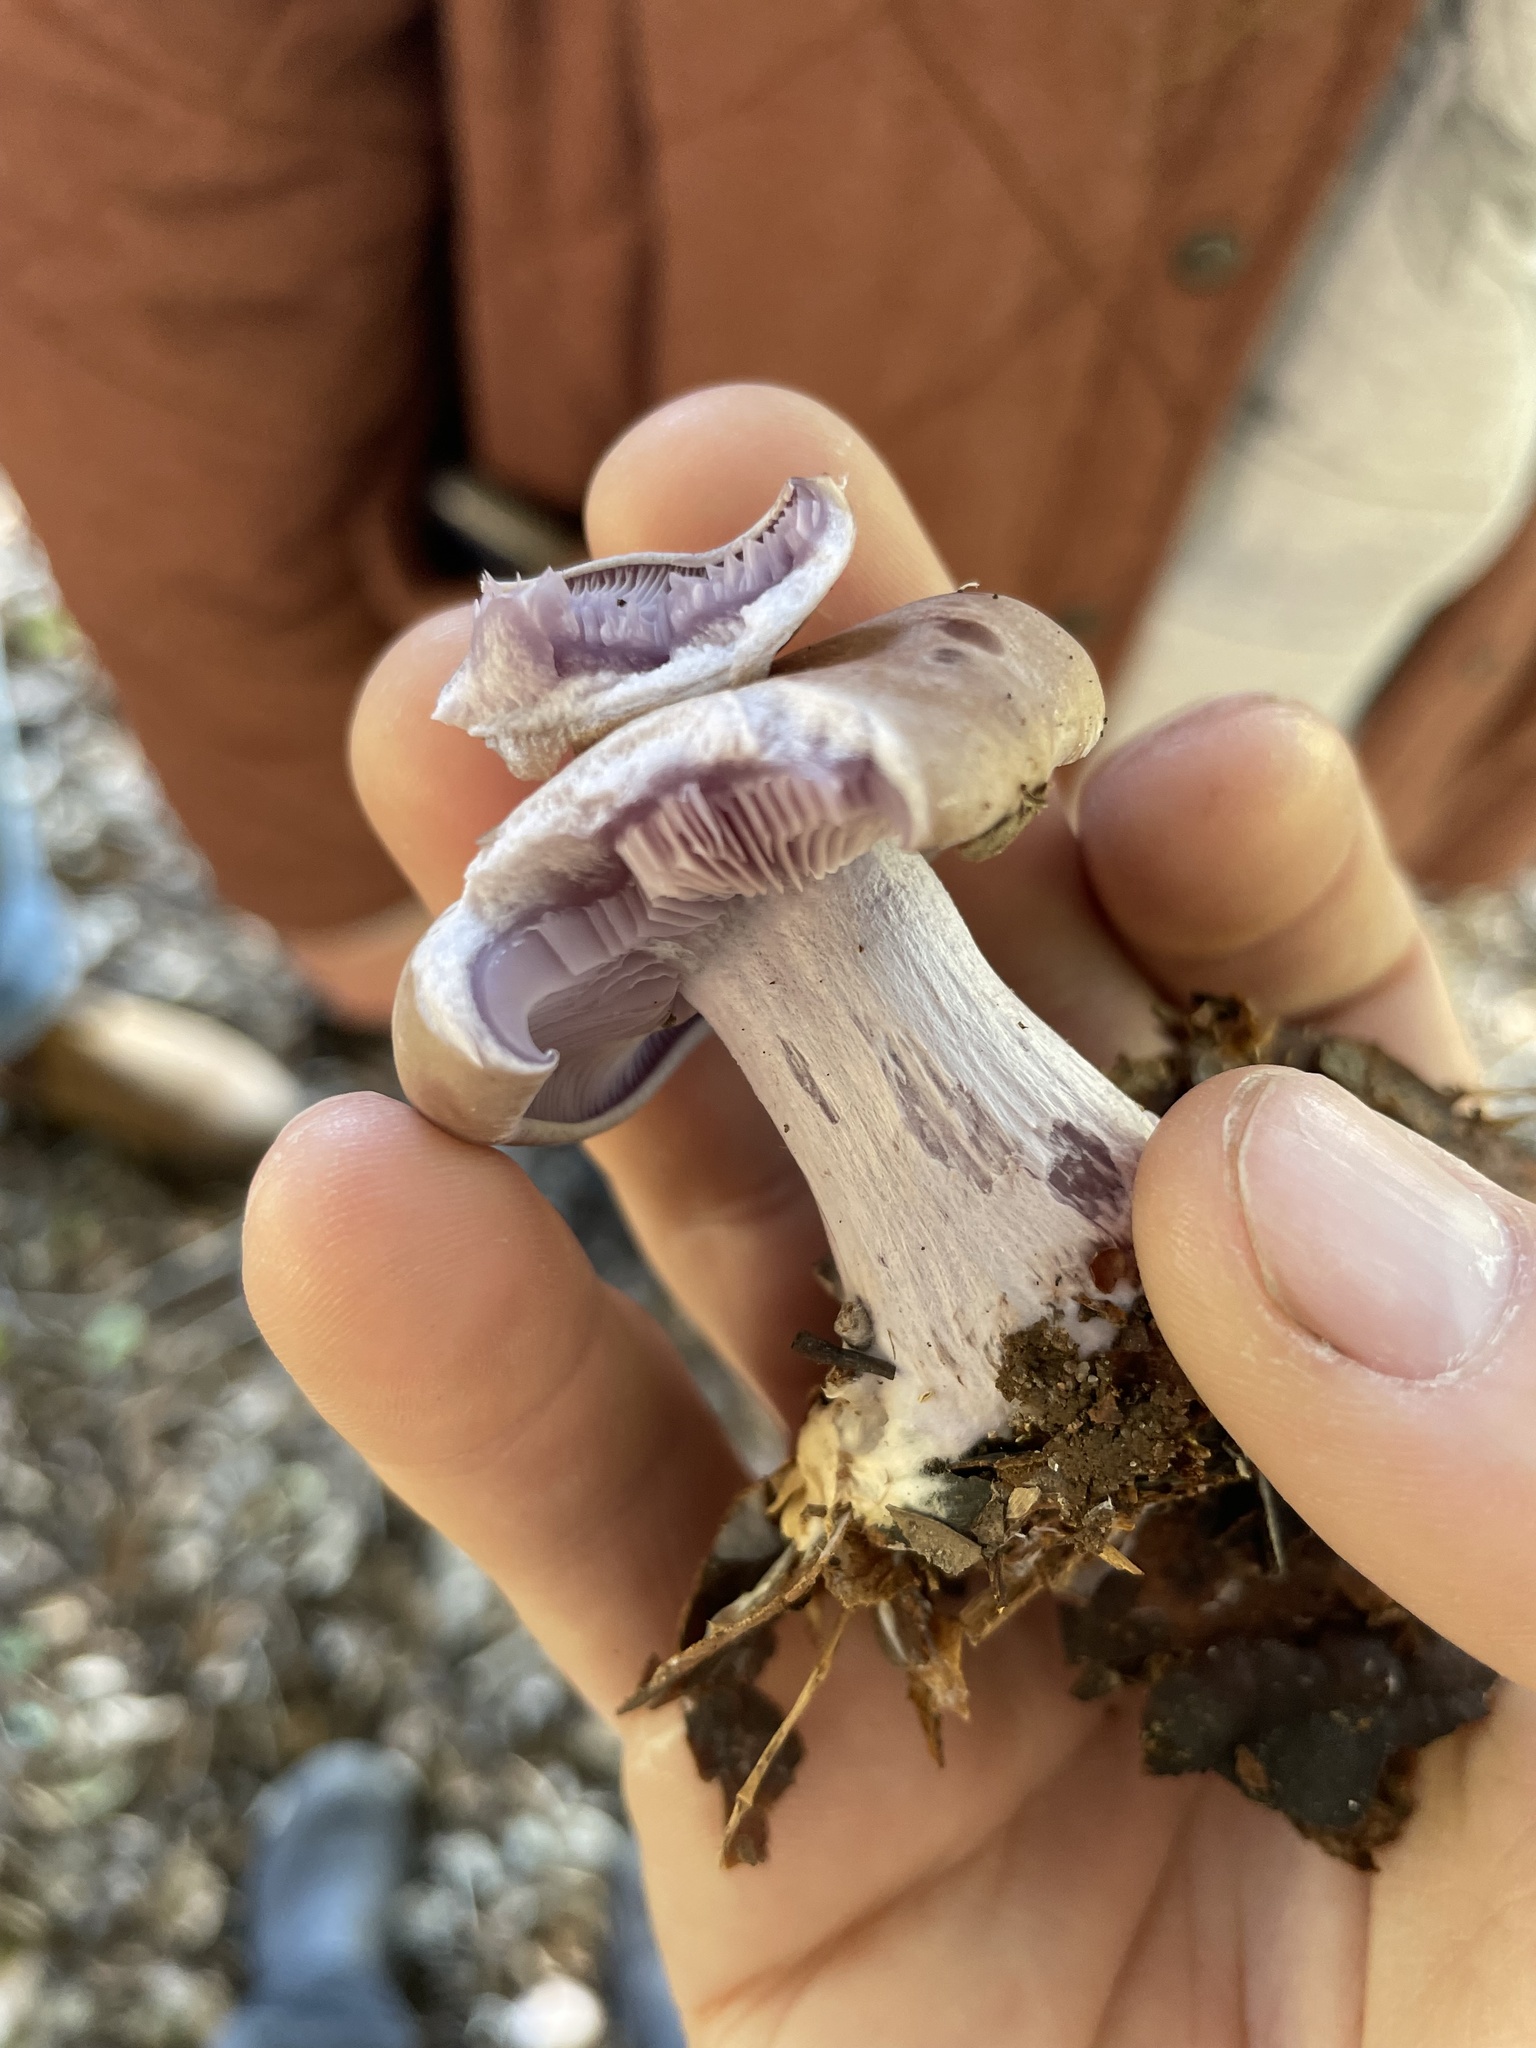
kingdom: Fungi
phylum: Basidiomycota
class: Agaricomycetes
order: Agaricales
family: Tricholomataceae
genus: Collybia
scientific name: Collybia
